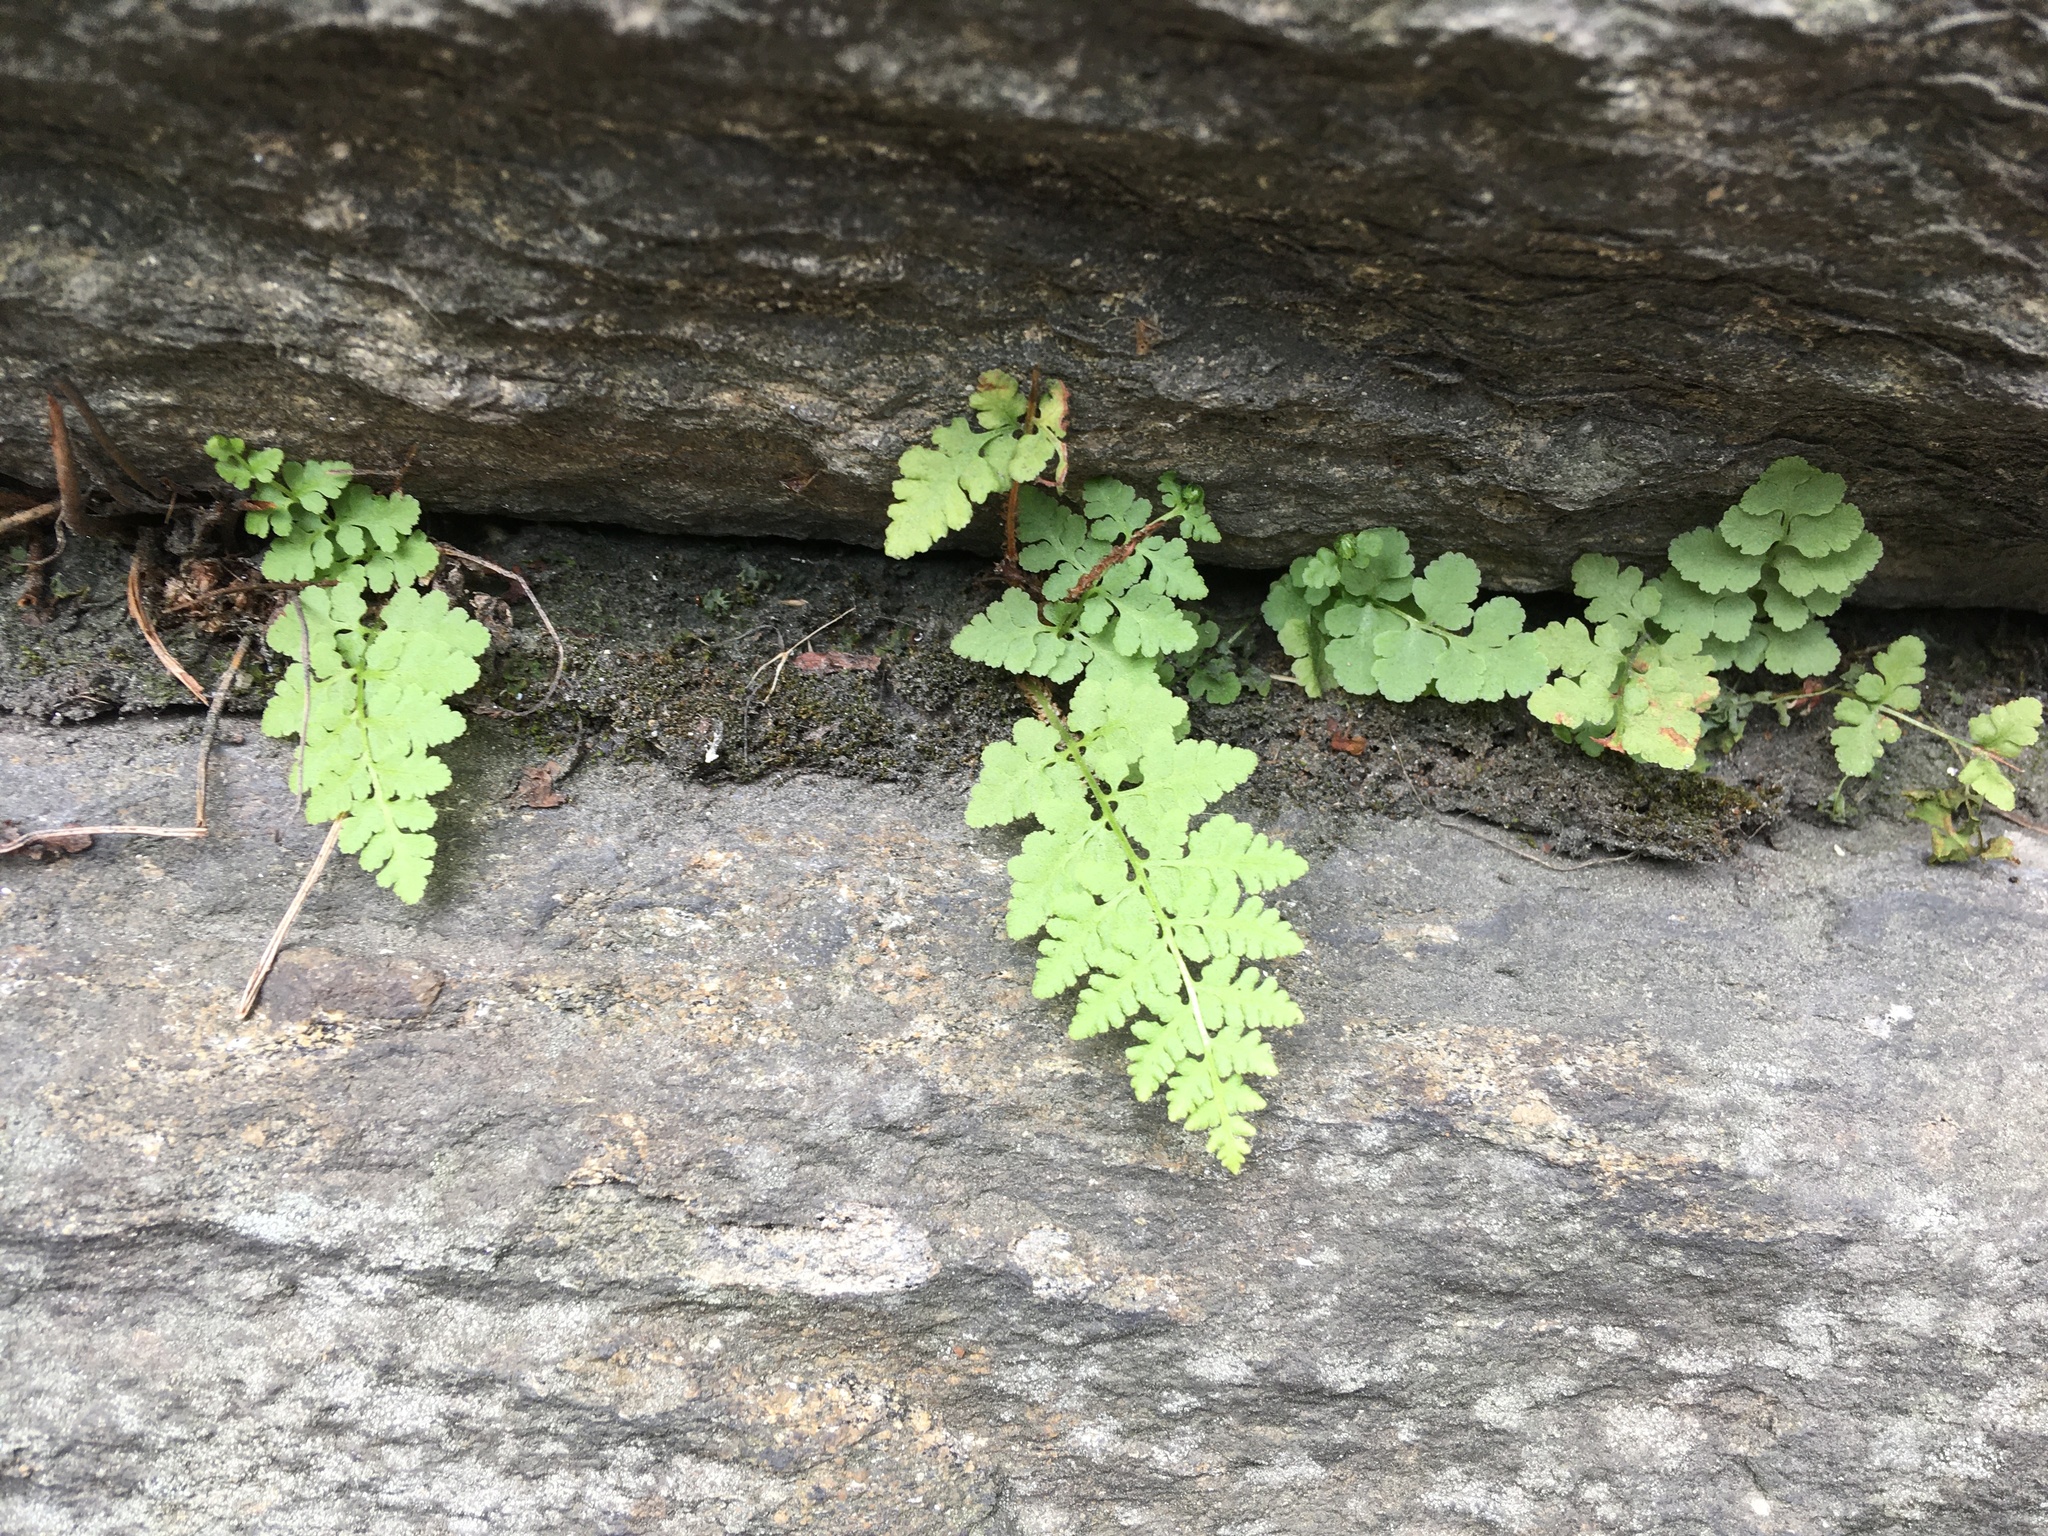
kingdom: Plantae
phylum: Tracheophyta
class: Polypodiopsida
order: Polypodiales
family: Woodsiaceae
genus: Physematium
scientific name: Physematium obtusum
